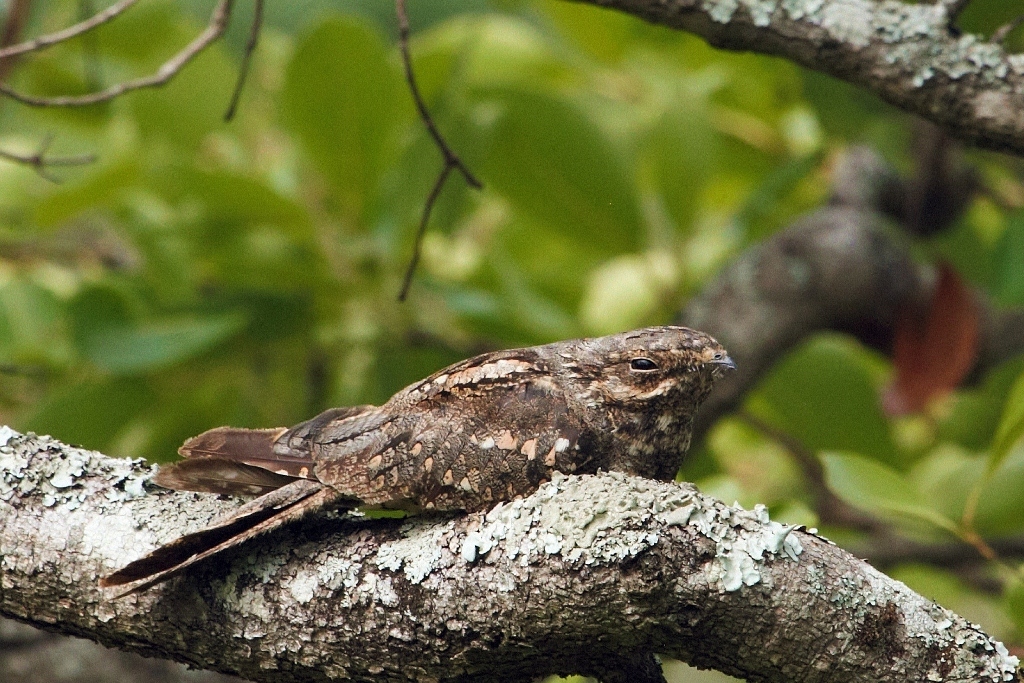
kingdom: Animalia
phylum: Chordata
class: Aves
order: Caprimulgiformes
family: Caprimulgidae
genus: Caprimulgus
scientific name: Caprimulgus europaeus
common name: European nightjar
